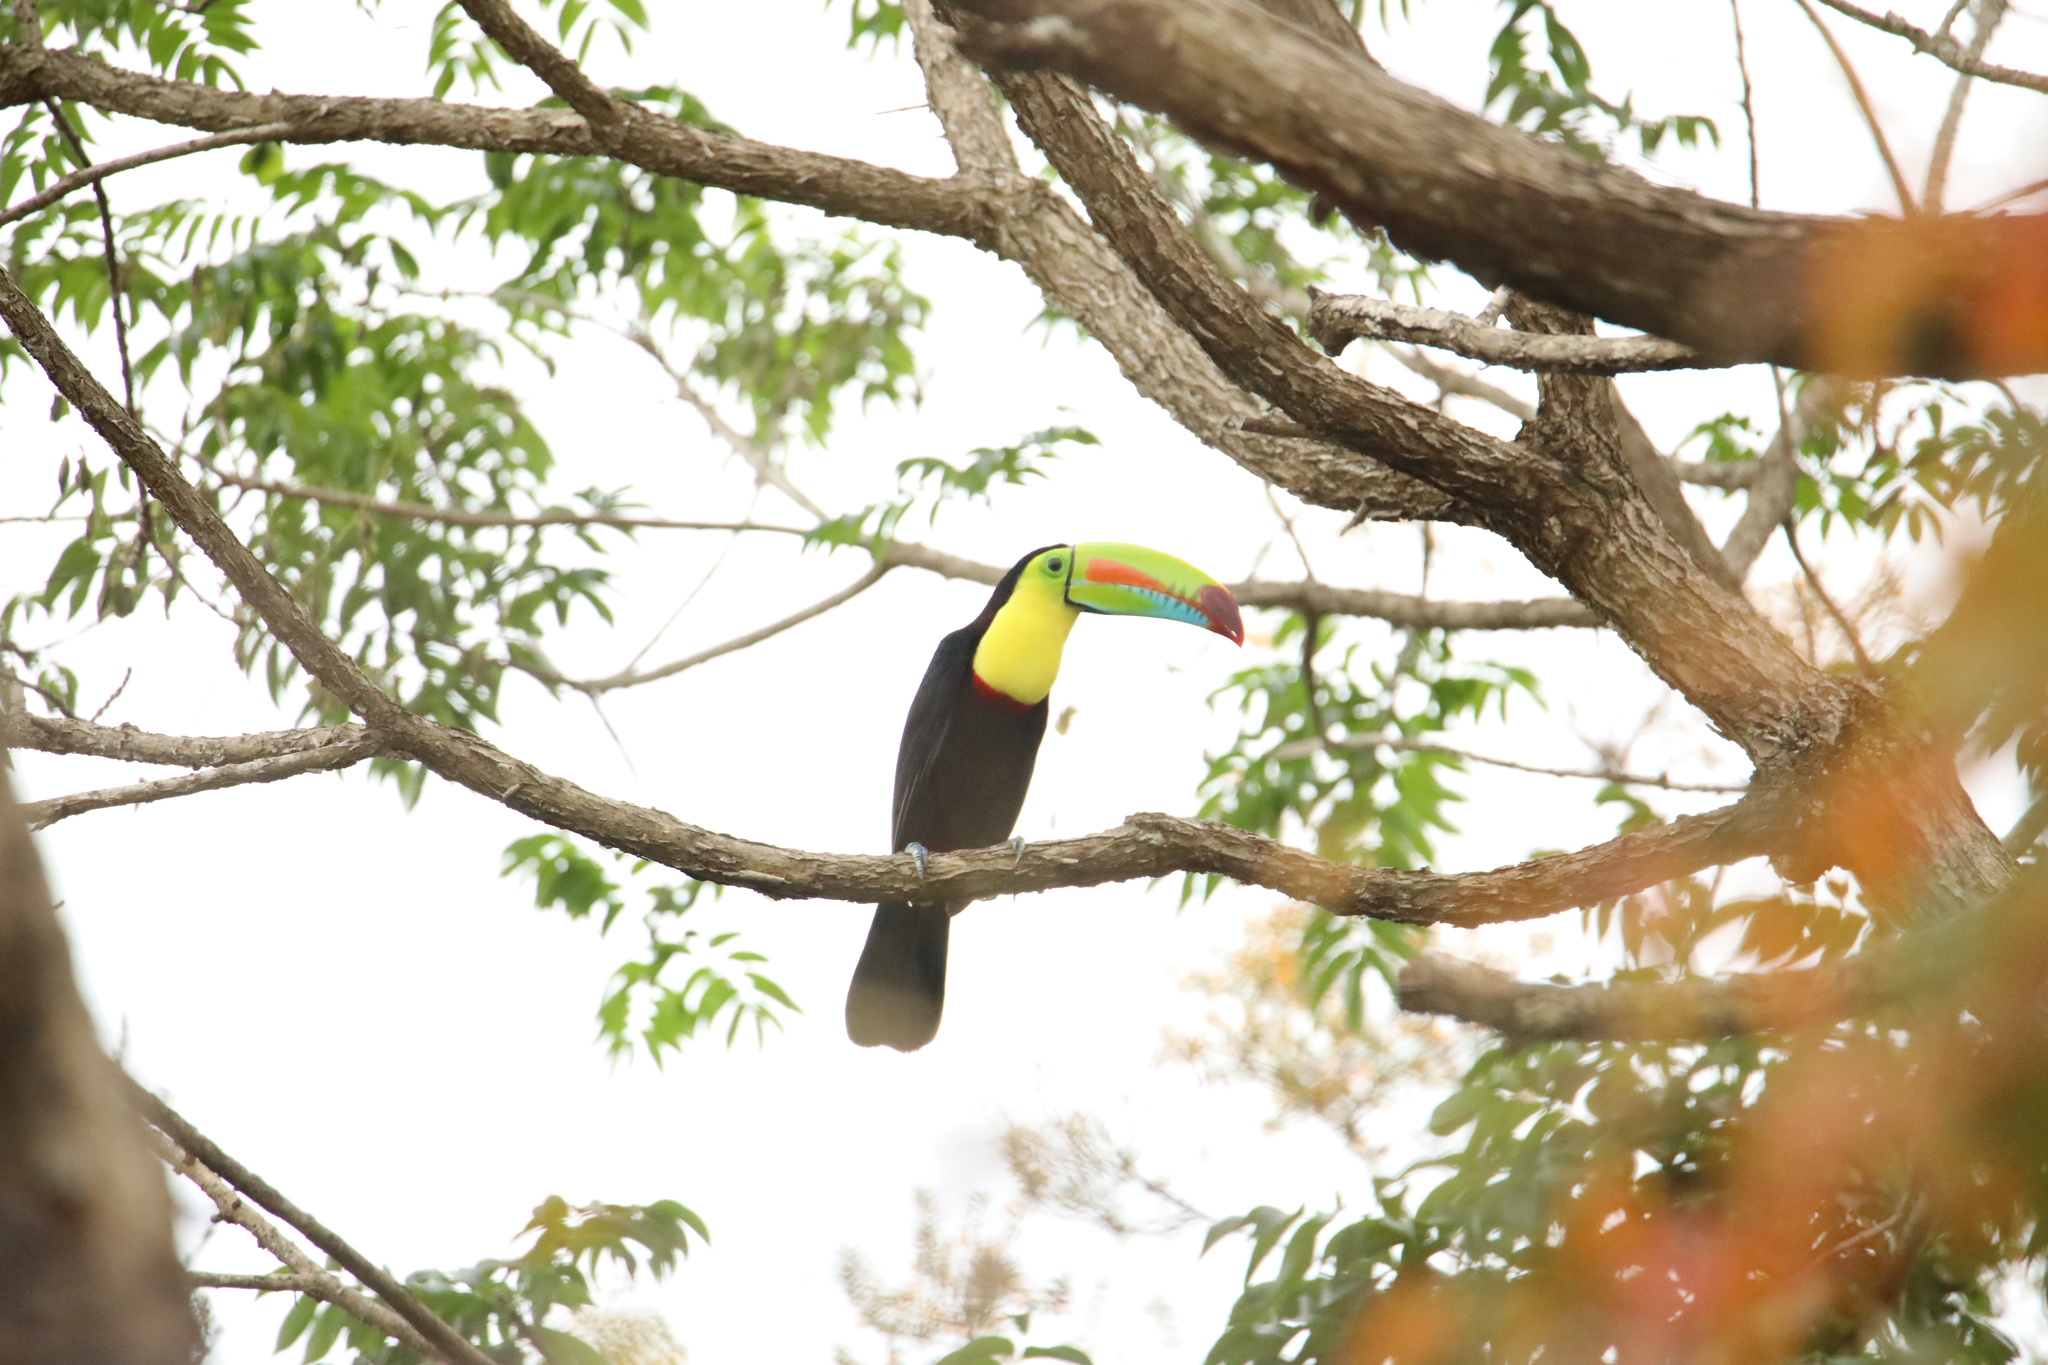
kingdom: Animalia
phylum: Chordata
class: Aves
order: Piciformes
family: Ramphastidae
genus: Ramphastos
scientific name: Ramphastos sulfuratus
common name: Keel-billed toucan
